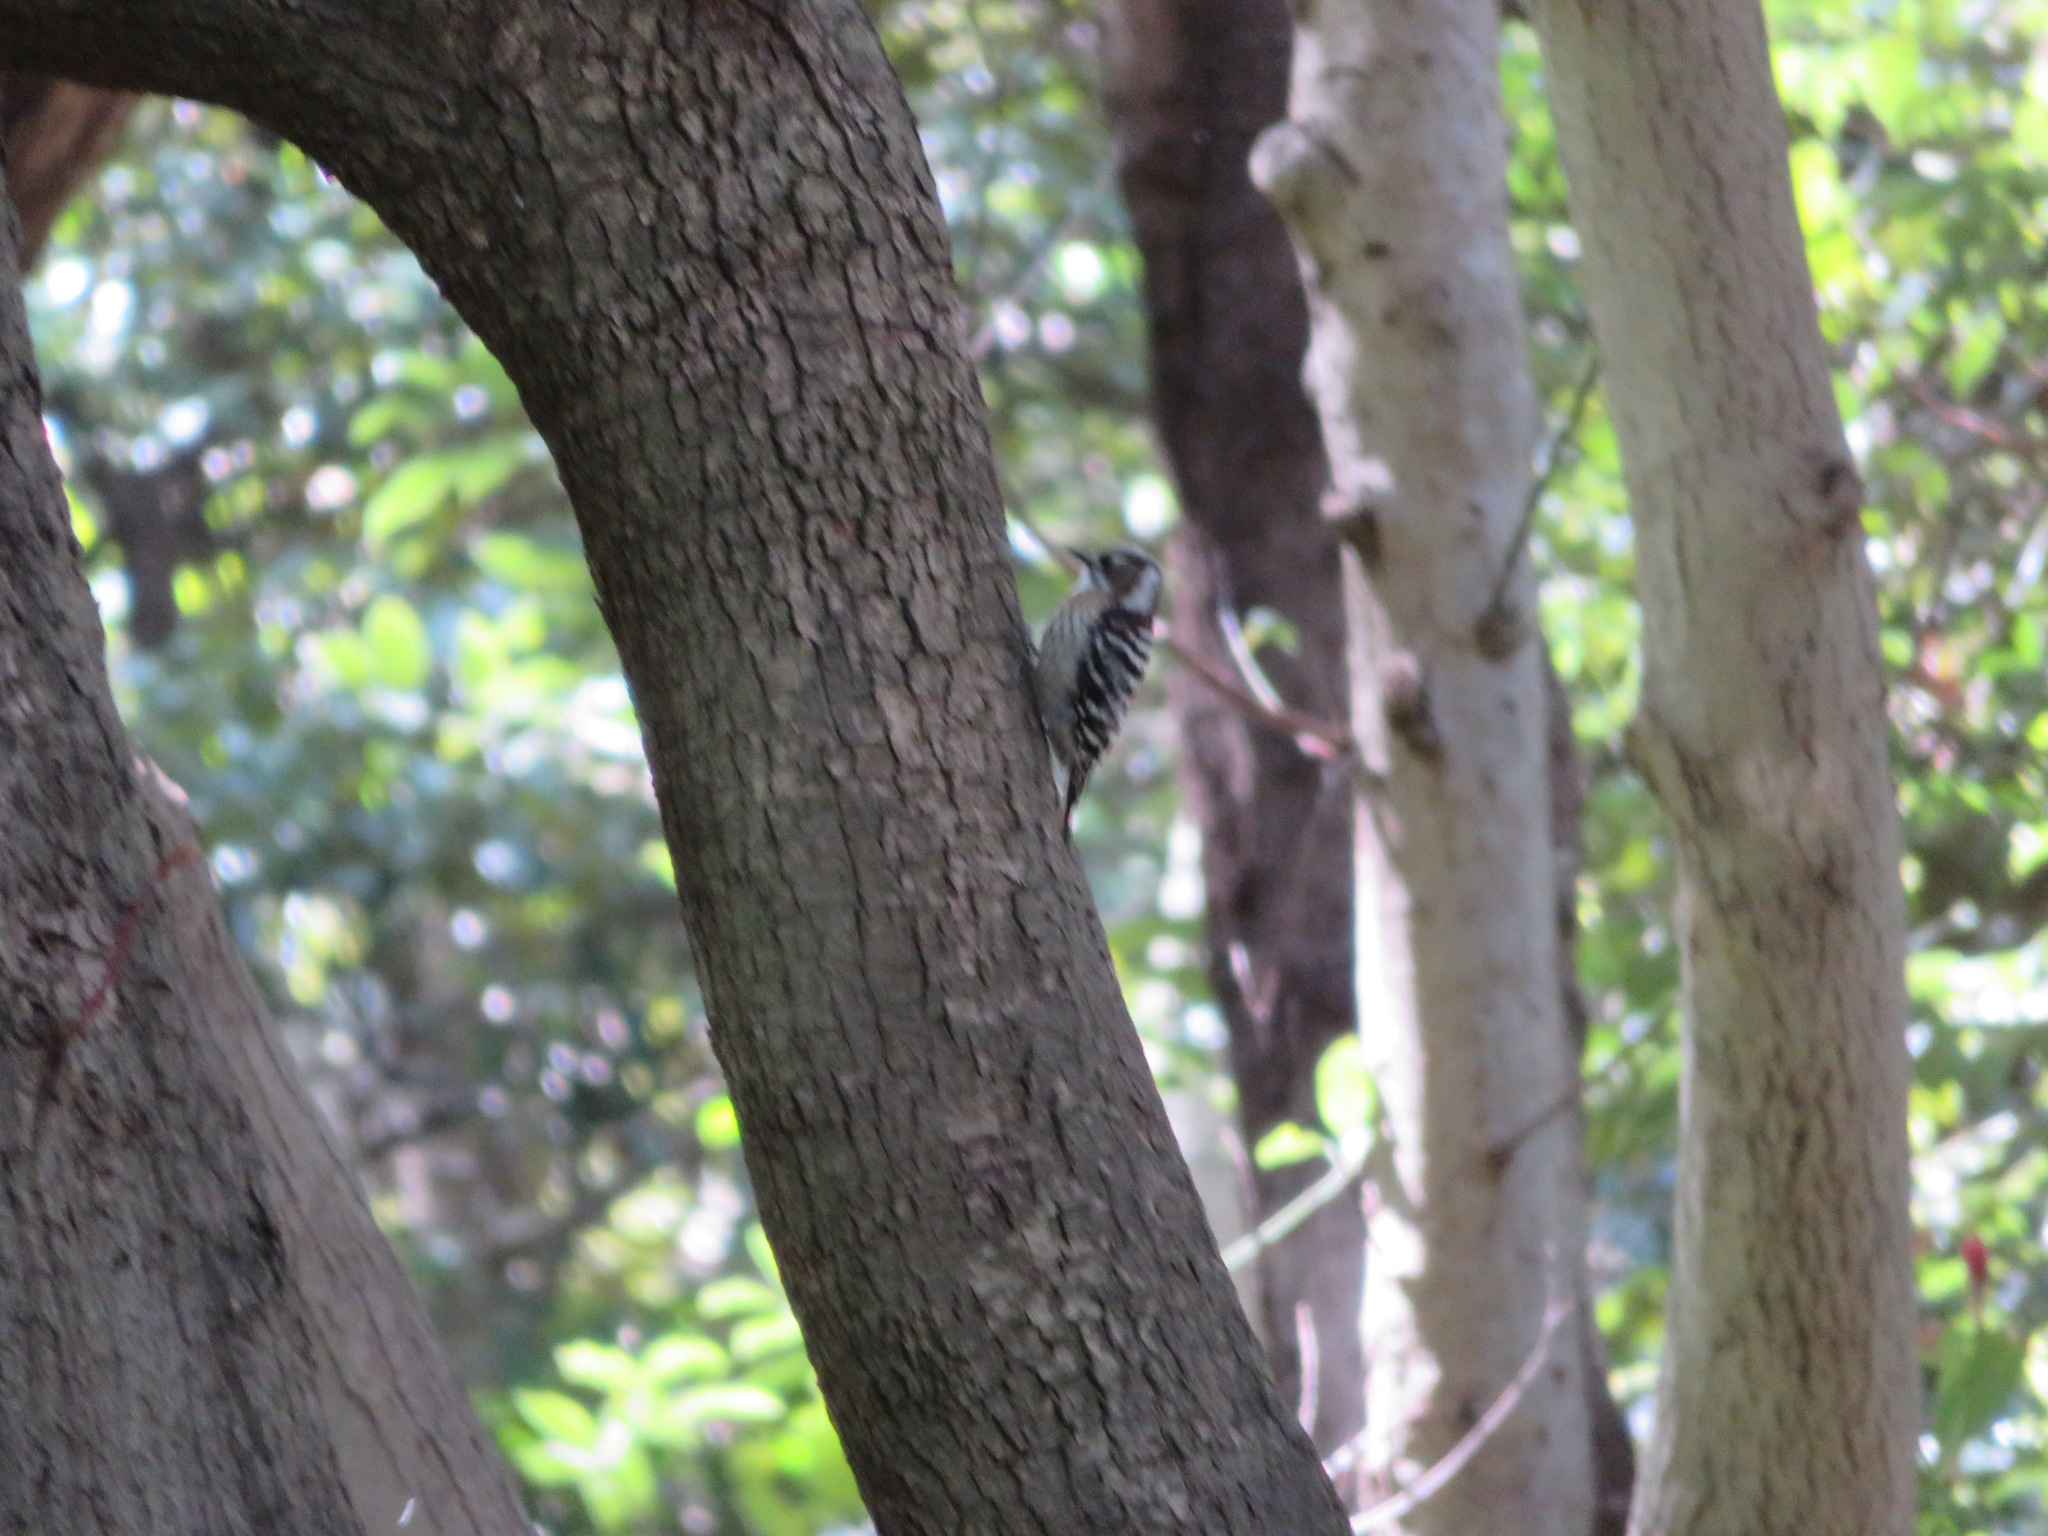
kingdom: Animalia
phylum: Chordata
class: Aves
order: Piciformes
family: Picidae
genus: Yungipicus
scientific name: Yungipicus kizuki
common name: Japanese pygmy woodpecker
